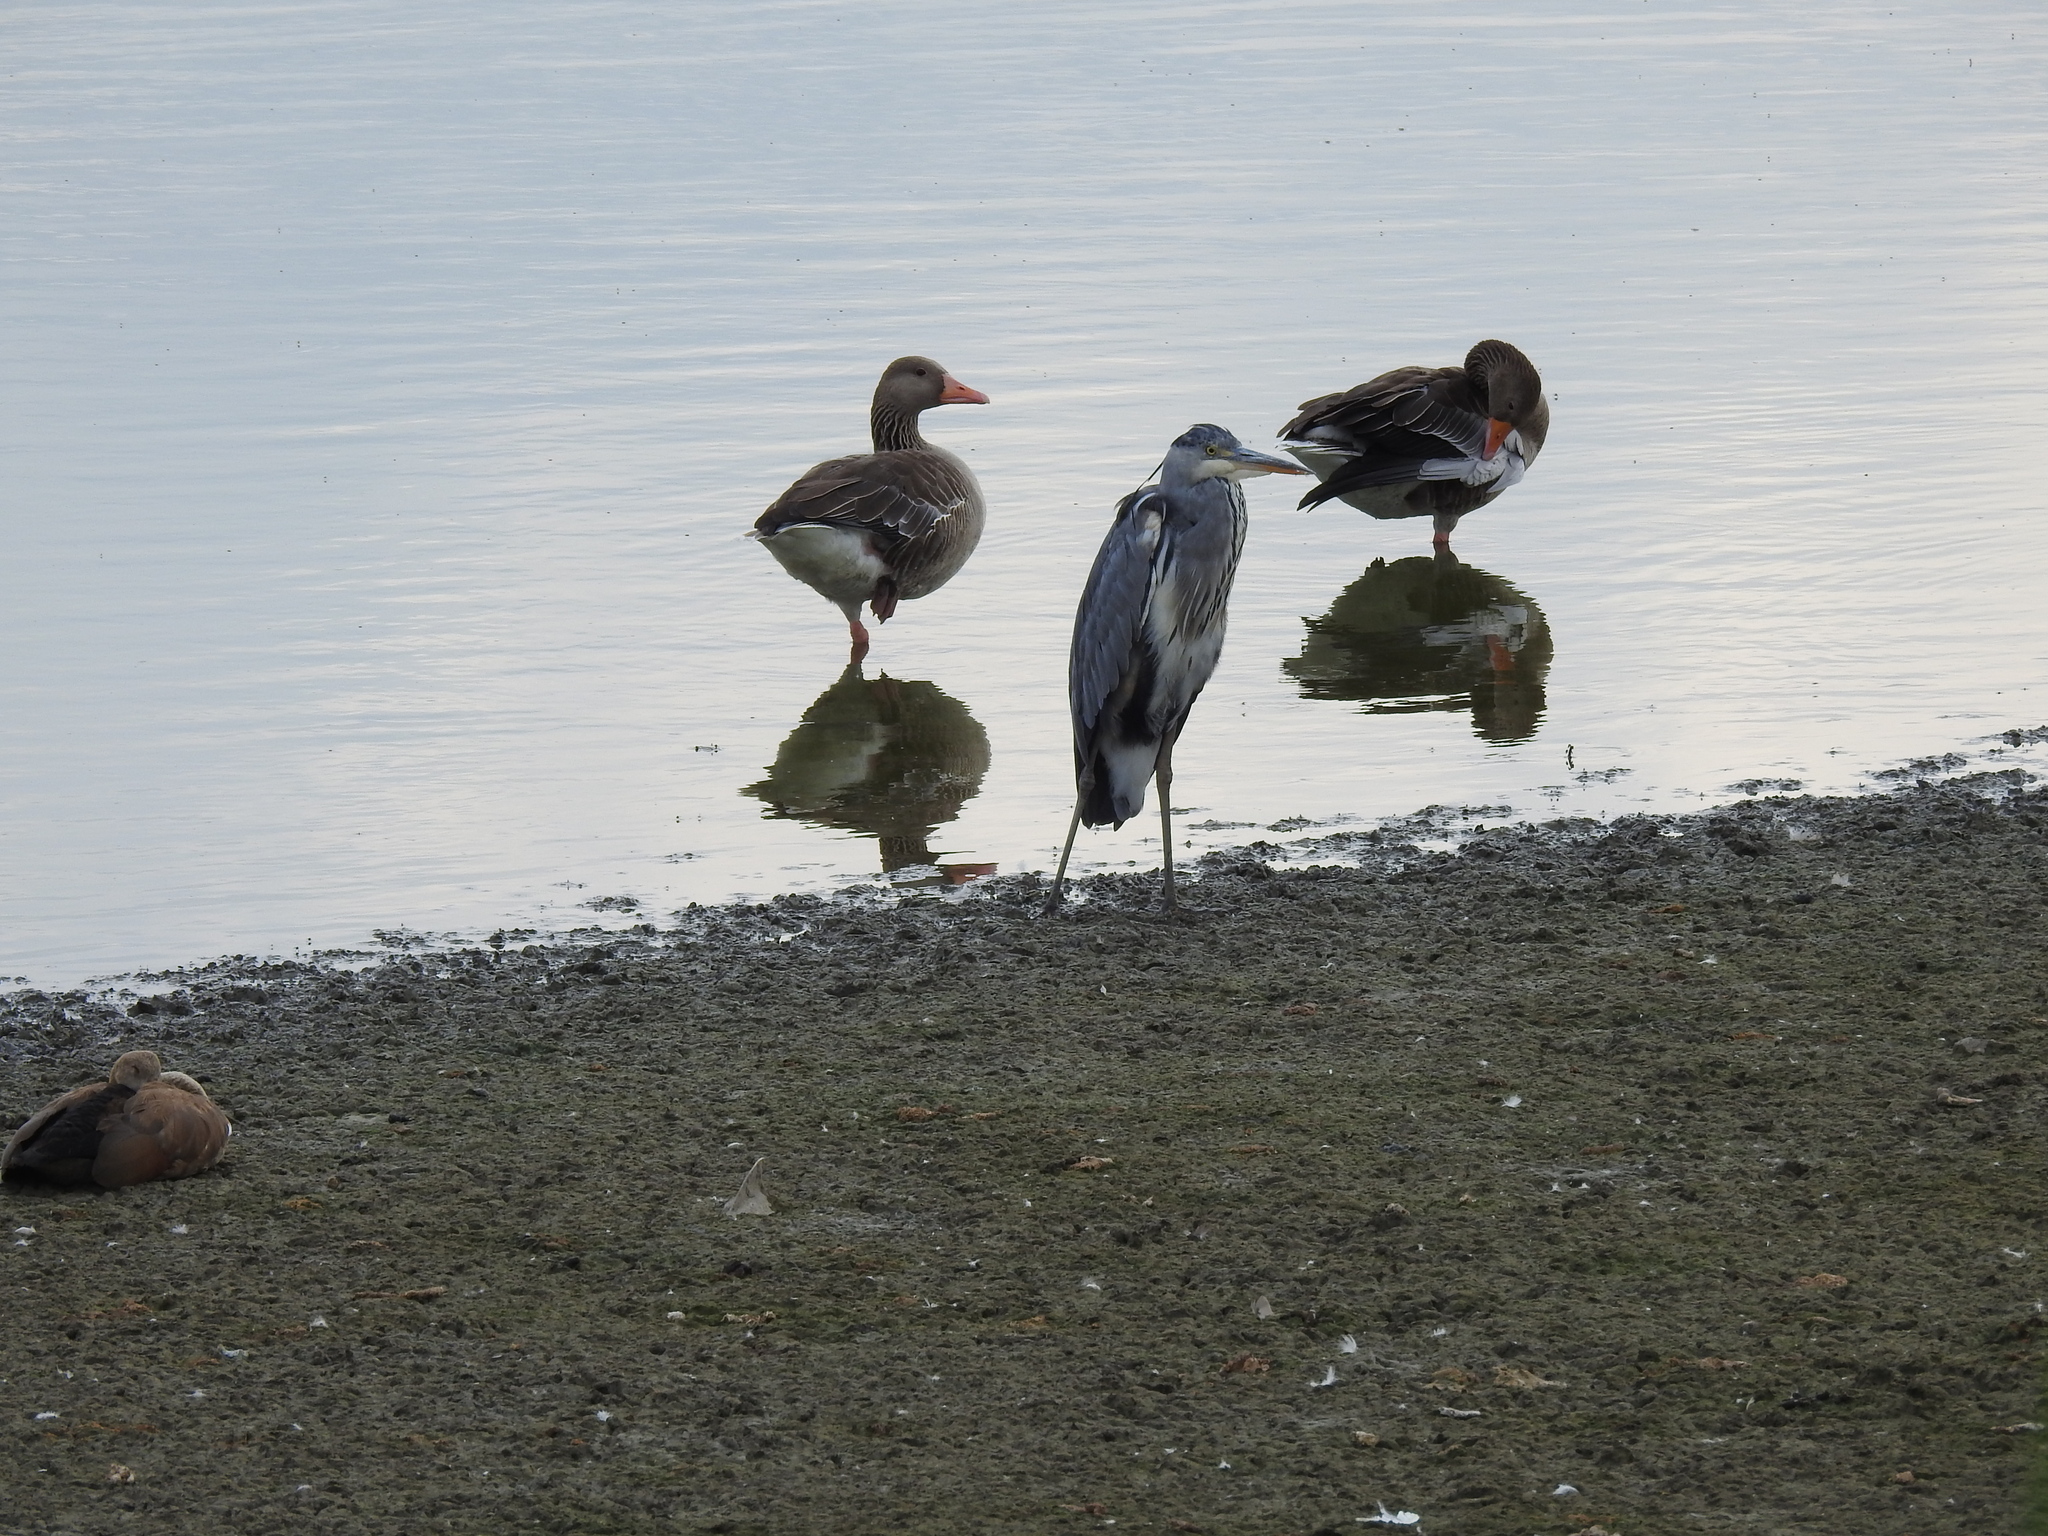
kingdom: Animalia
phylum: Chordata
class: Aves
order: Pelecaniformes
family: Ardeidae
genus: Ardea
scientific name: Ardea cinerea
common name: Grey heron
